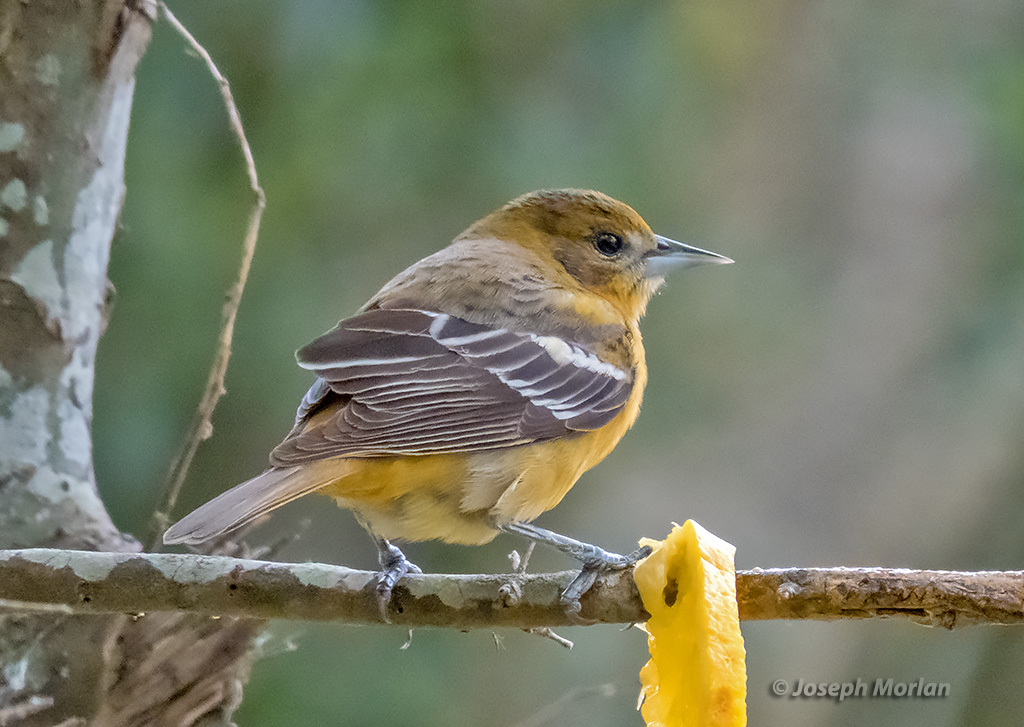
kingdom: Animalia
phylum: Chordata
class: Aves
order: Passeriformes
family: Icteridae
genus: Icterus
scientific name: Icterus galbula
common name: Baltimore oriole
